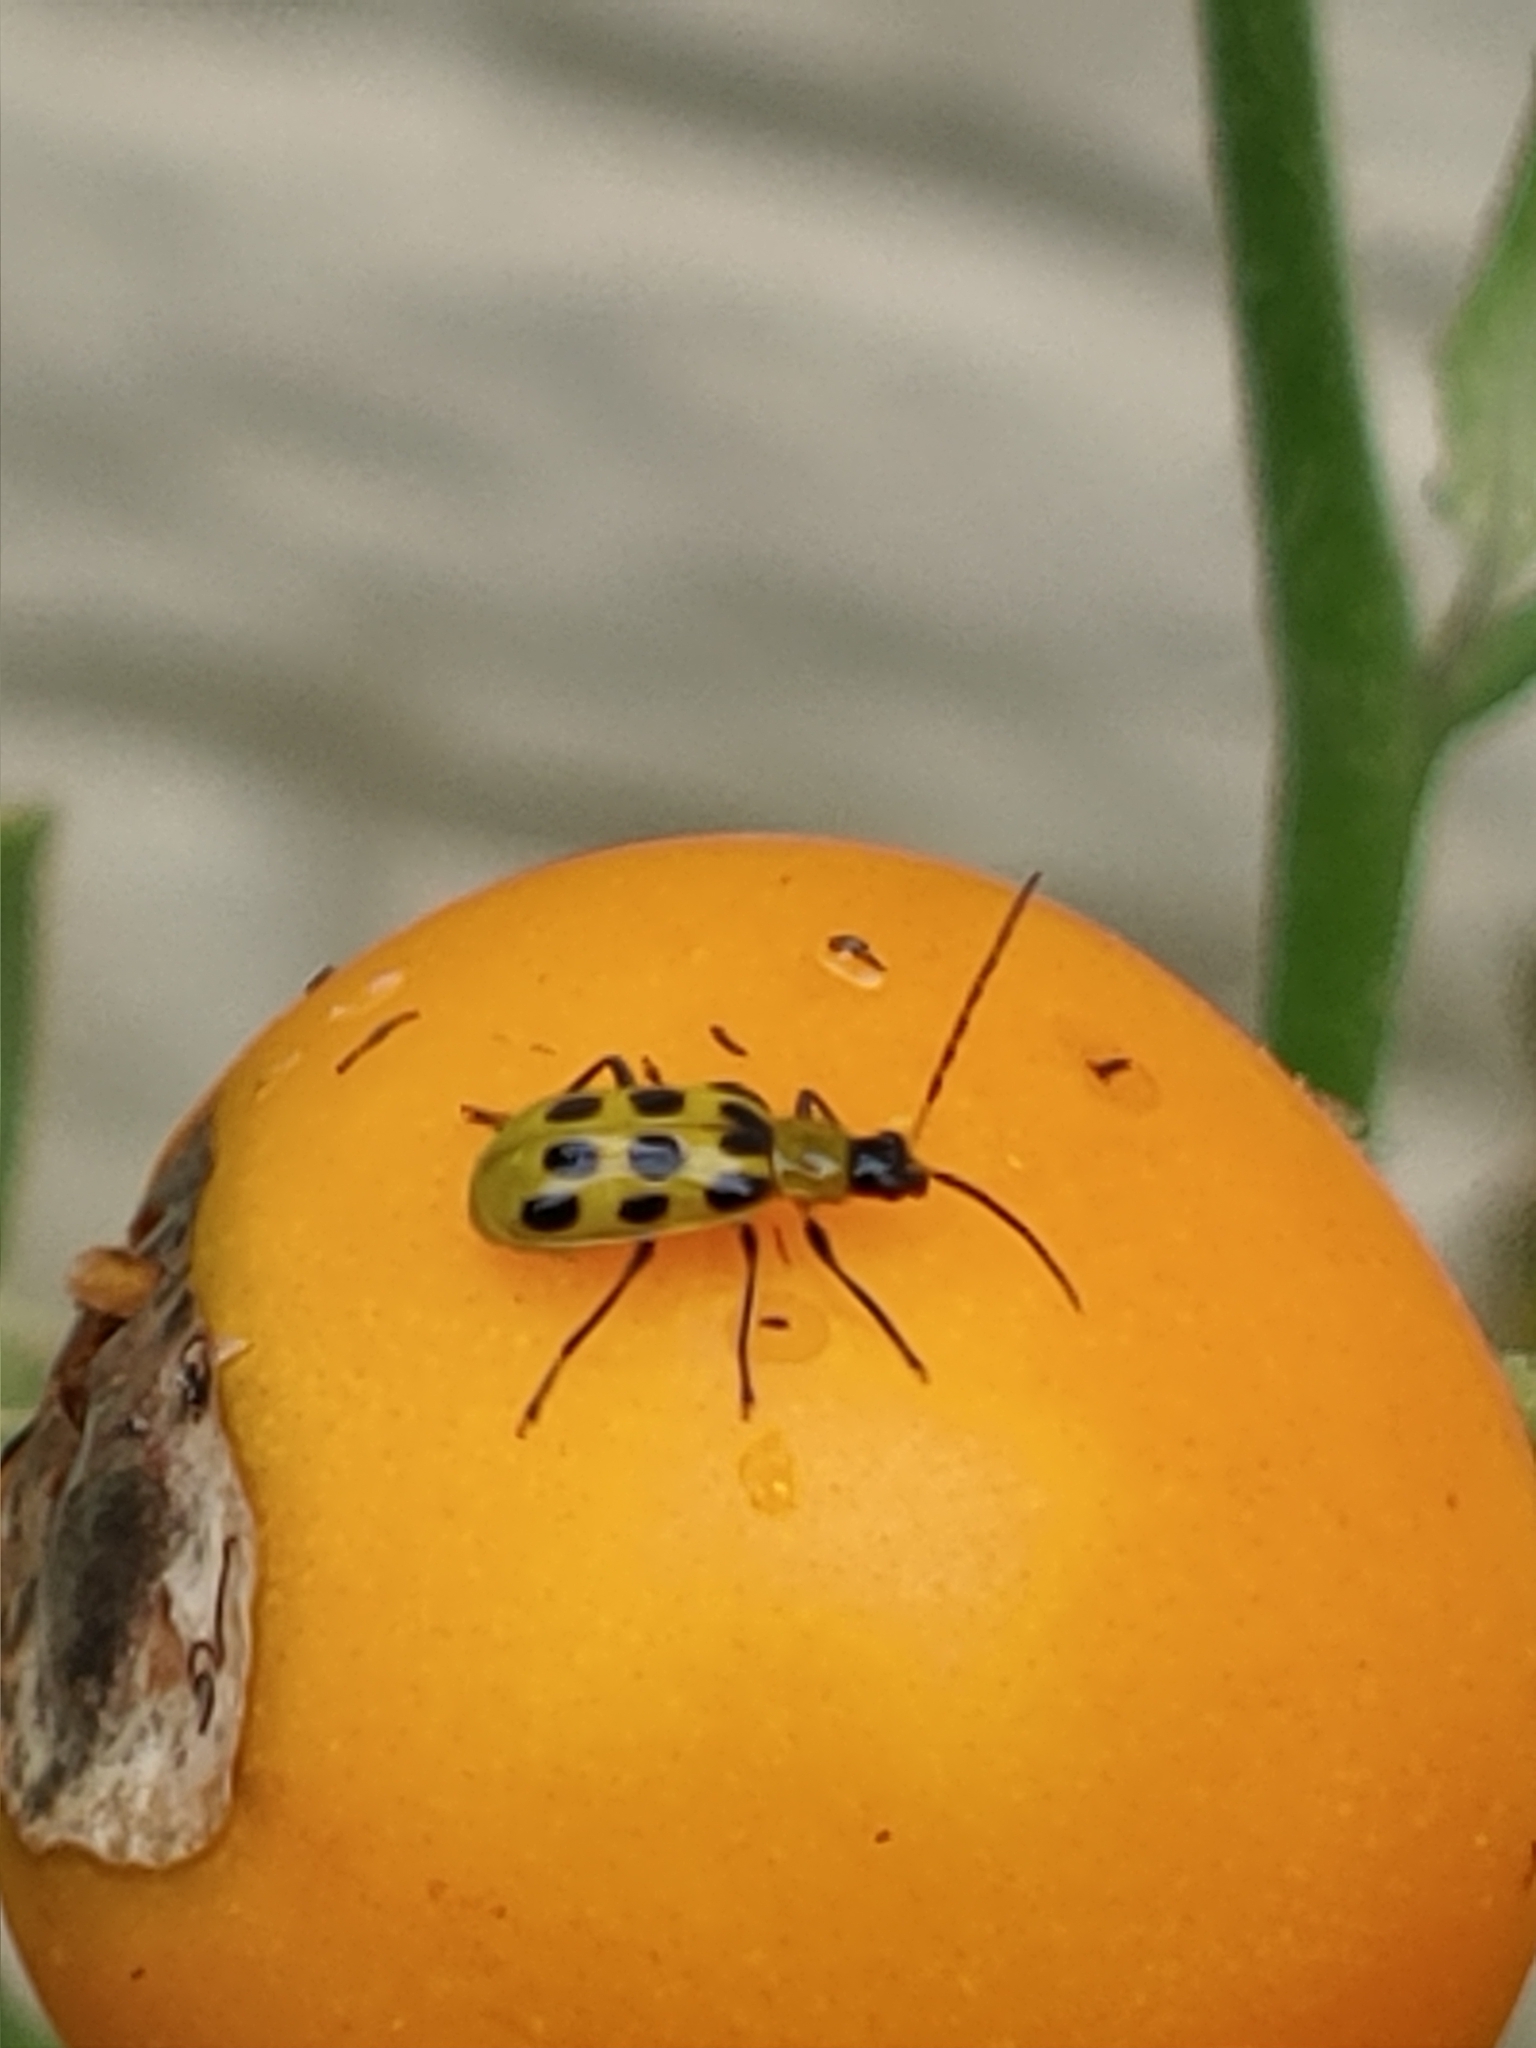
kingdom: Animalia
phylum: Arthropoda
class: Insecta
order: Coleoptera
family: Chrysomelidae
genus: Diabrotica
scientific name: Diabrotica undecimpunctata
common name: Spotted cucumber beetle
